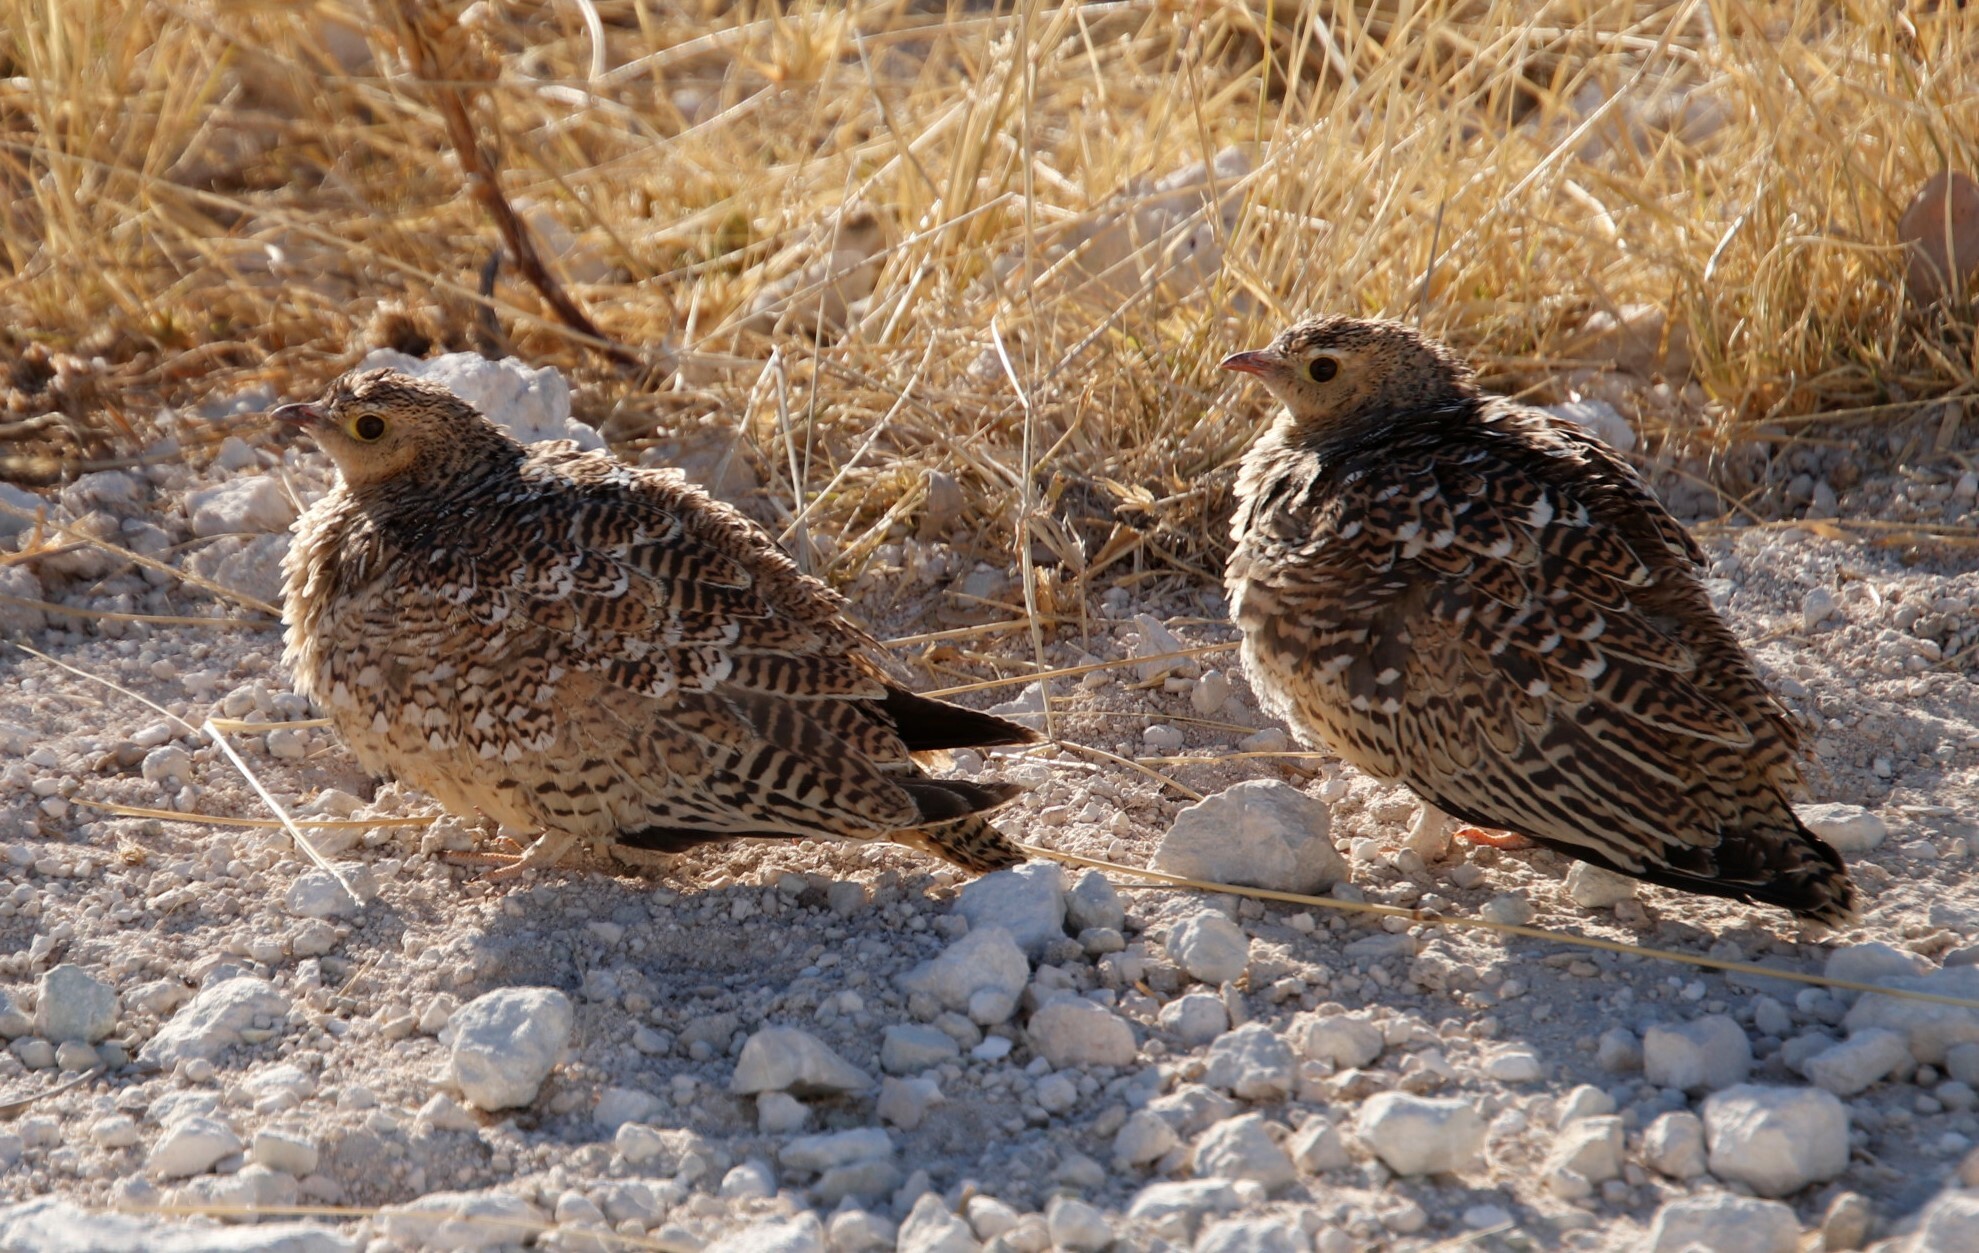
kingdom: Animalia
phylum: Chordata
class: Aves
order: Pteroclidiformes
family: Pteroclididae
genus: Pterocles
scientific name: Pterocles bicinctus
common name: Double-banded sandgrouse
